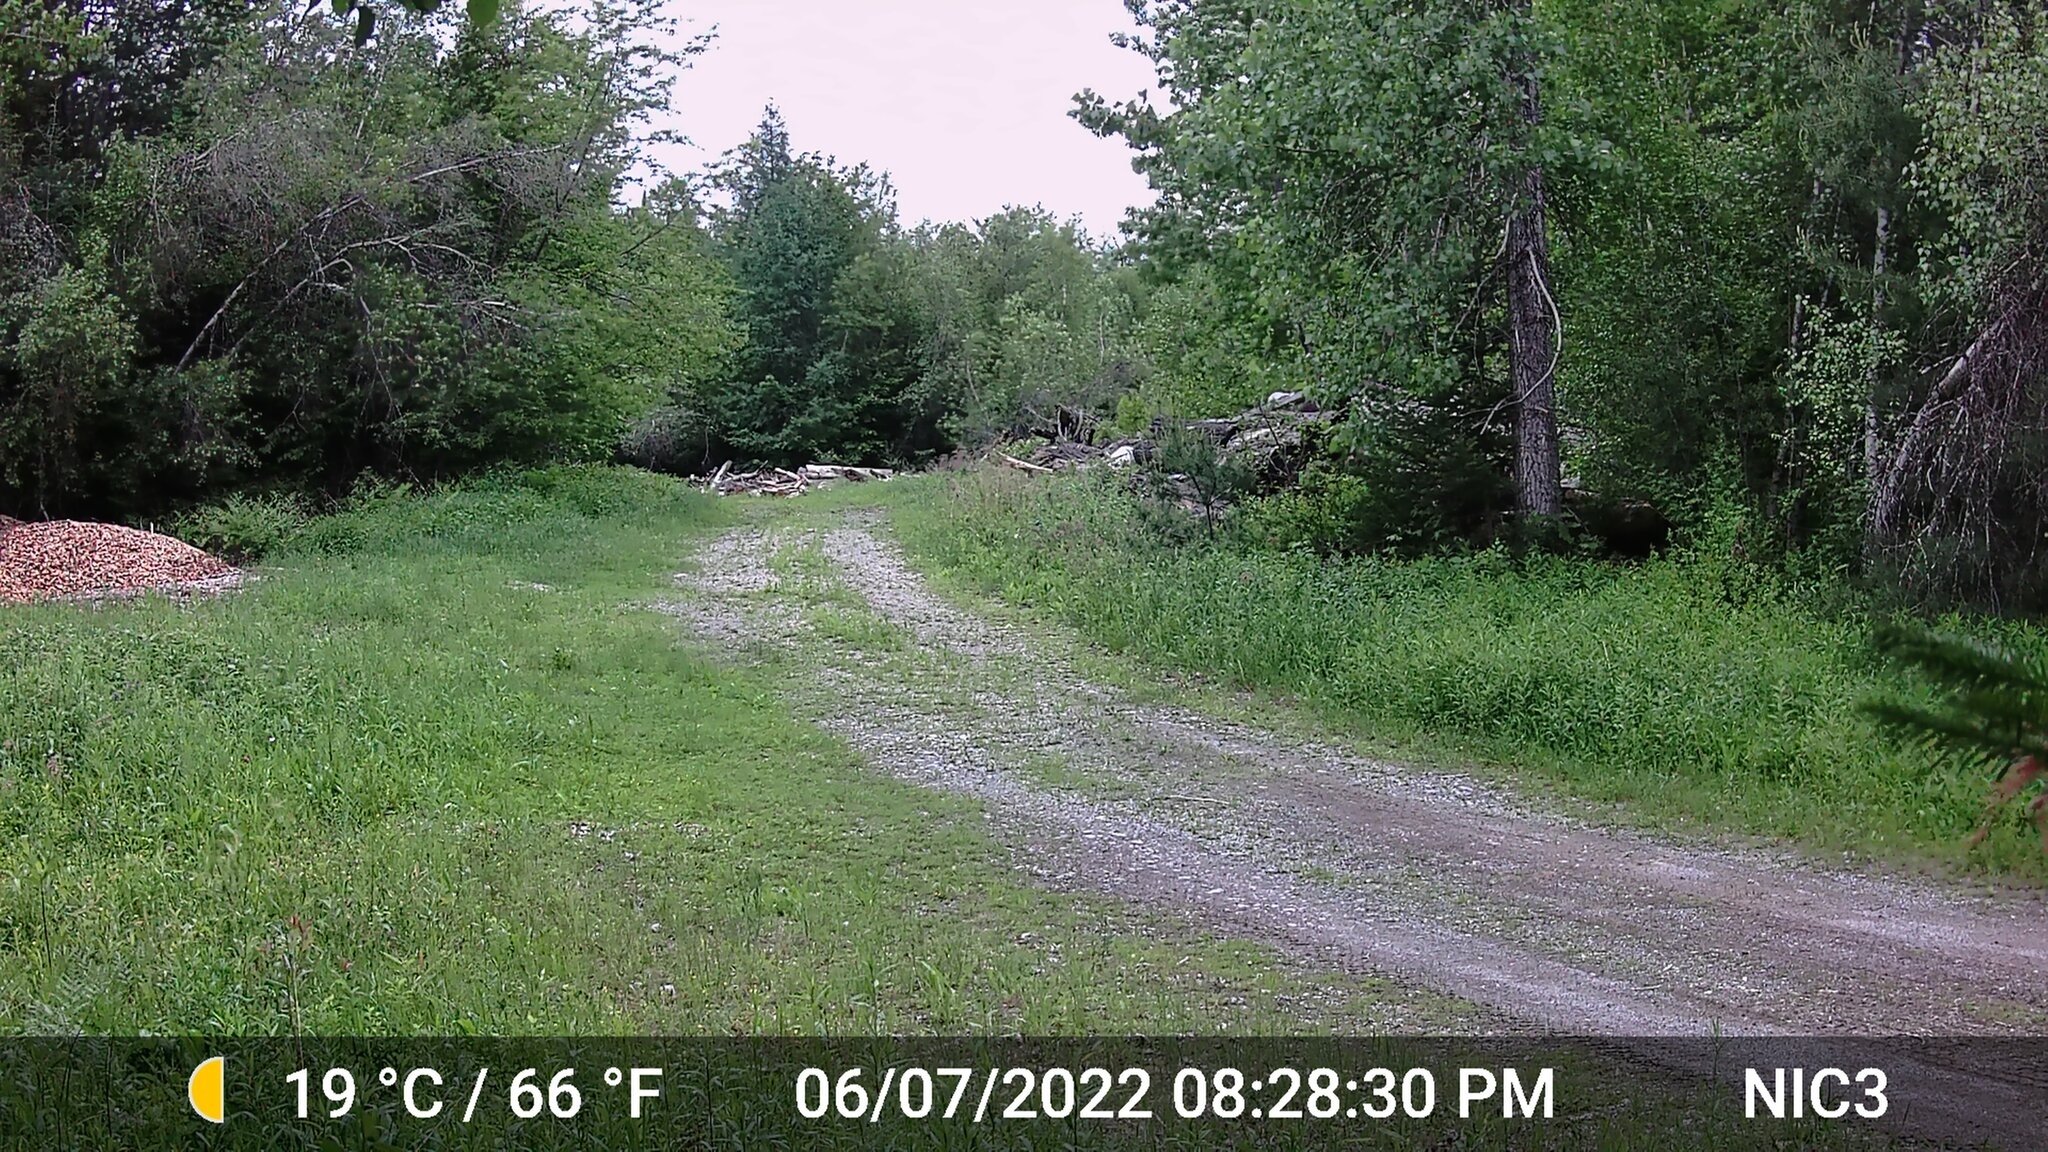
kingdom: Animalia
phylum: Chordata
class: Mammalia
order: Artiodactyla
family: Cervidae
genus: Odocoileus
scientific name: Odocoileus virginianus
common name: White-tailed deer
